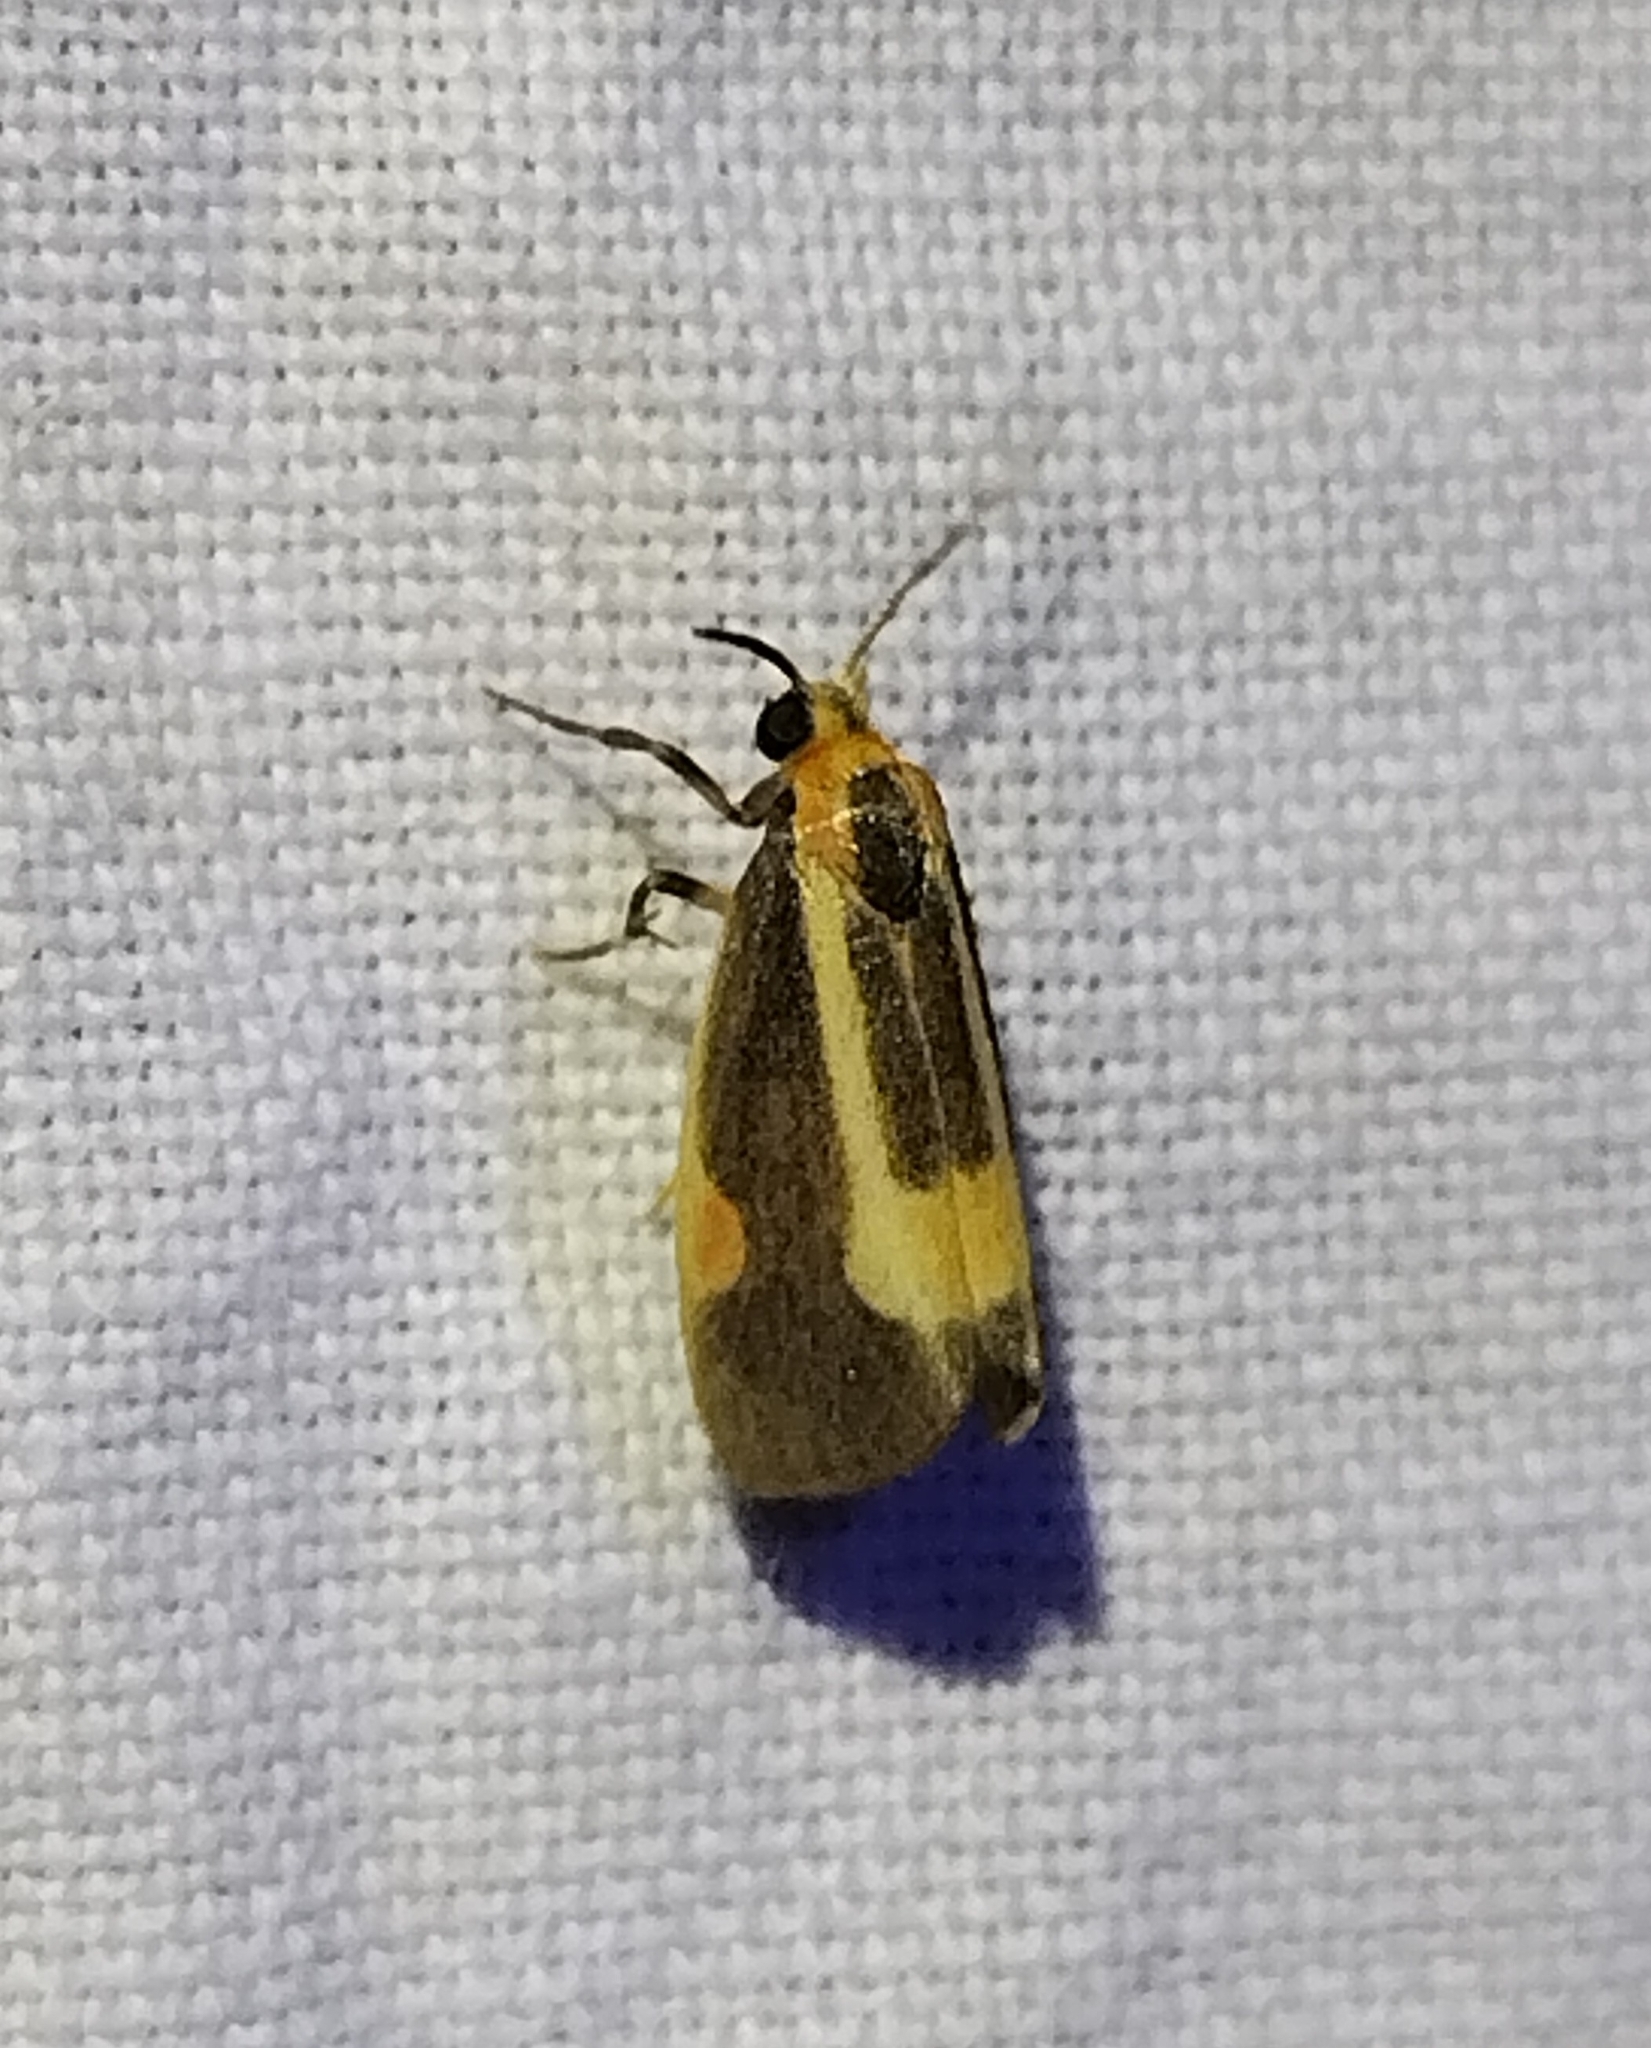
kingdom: Animalia
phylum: Arthropoda
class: Insecta
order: Lepidoptera
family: Erebidae
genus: Cisthene
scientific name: Cisthene packardii
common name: Packard's lichen moth
